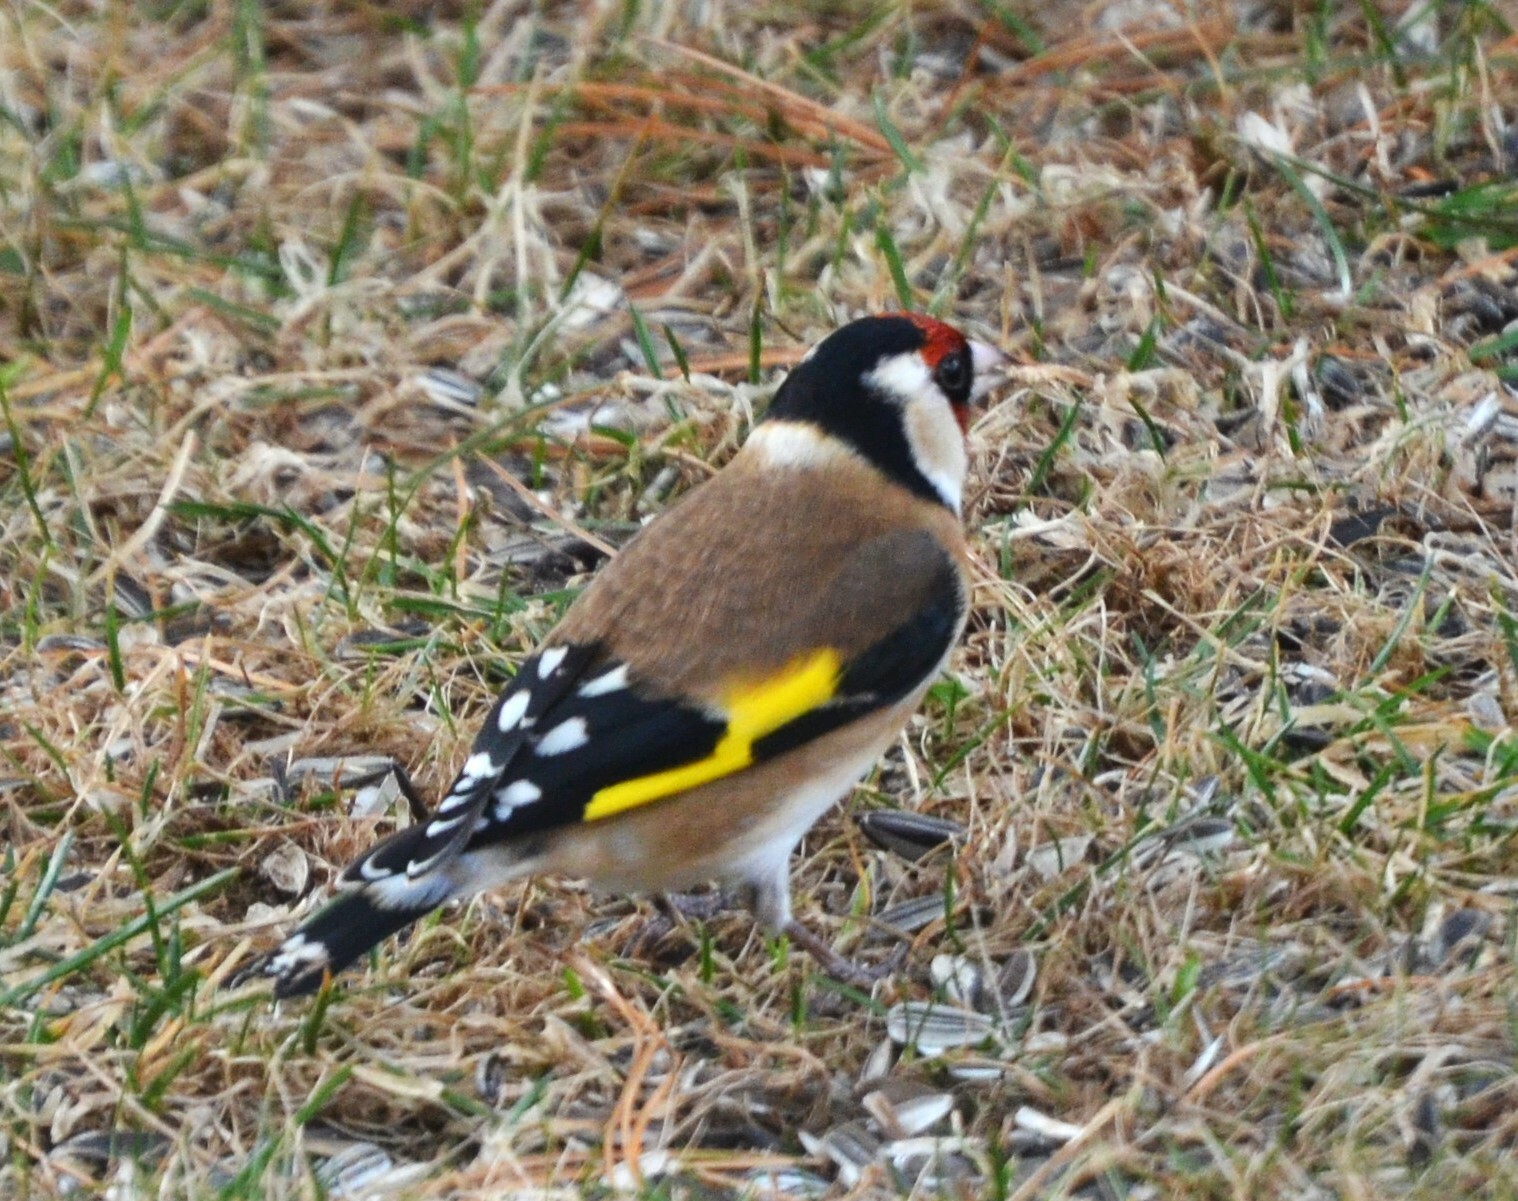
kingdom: Animalia
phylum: Chordata
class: Aves
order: Passeriformes
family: Fringillidae
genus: Carduelis
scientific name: Carduelis carduelis
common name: European goldfinch
